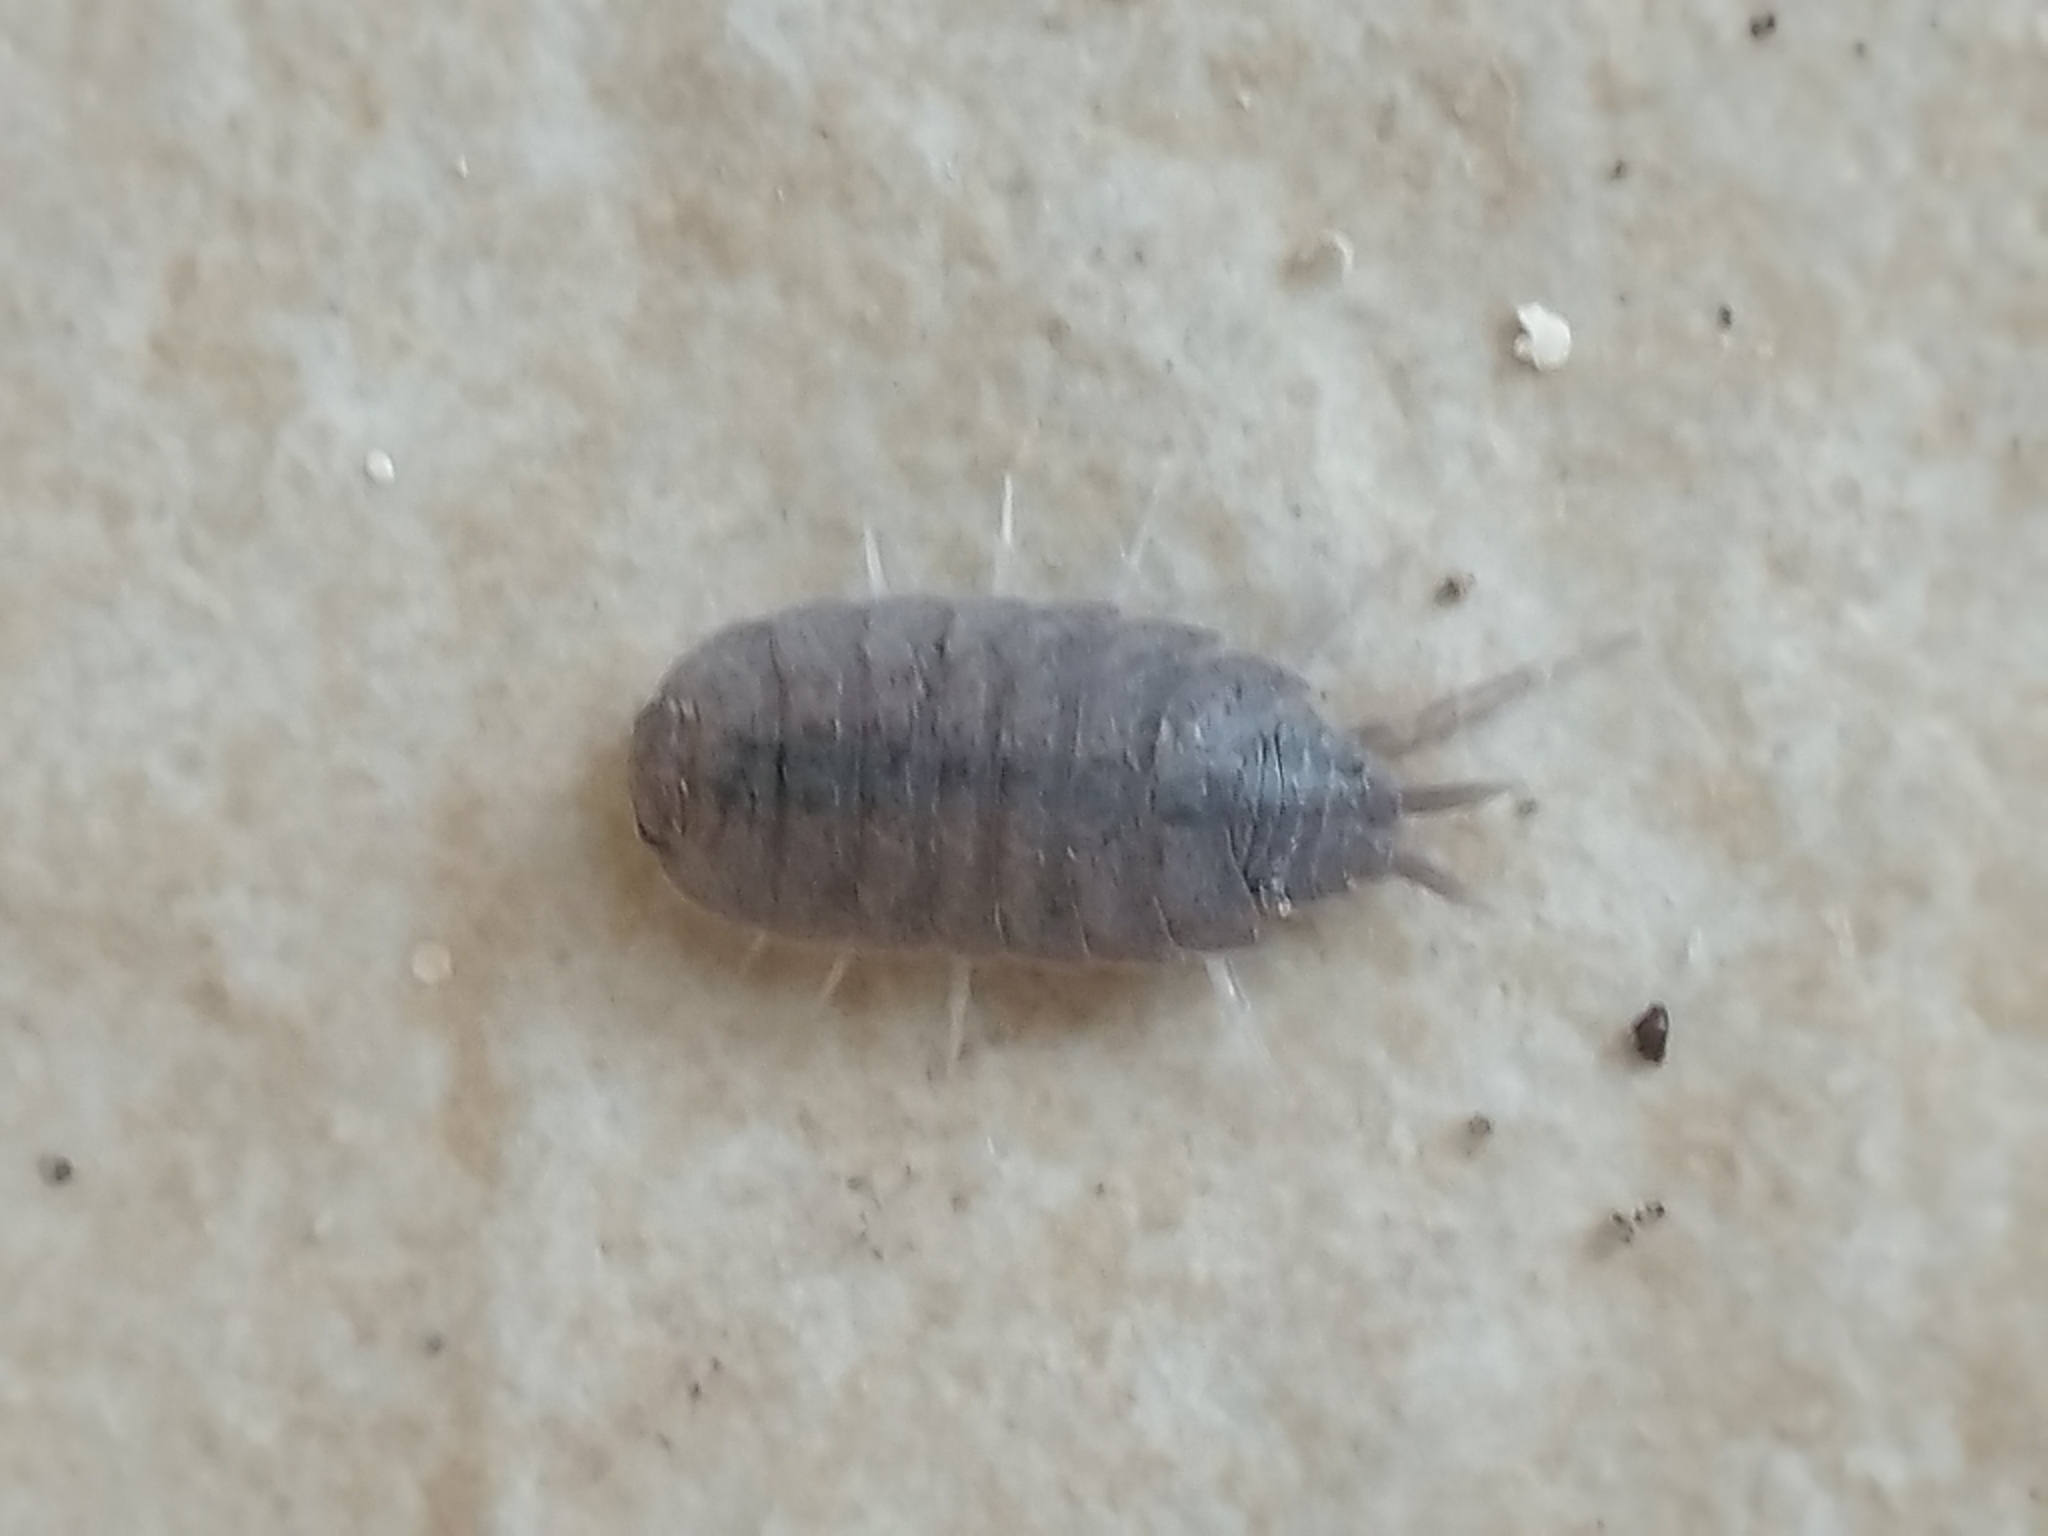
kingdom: Animalia
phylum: Arthropoda
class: Malacostraca
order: Isopoda
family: Porcellionidae
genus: Porcellionides
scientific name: Porcellionides pruinosus
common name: Plum woodlouse
